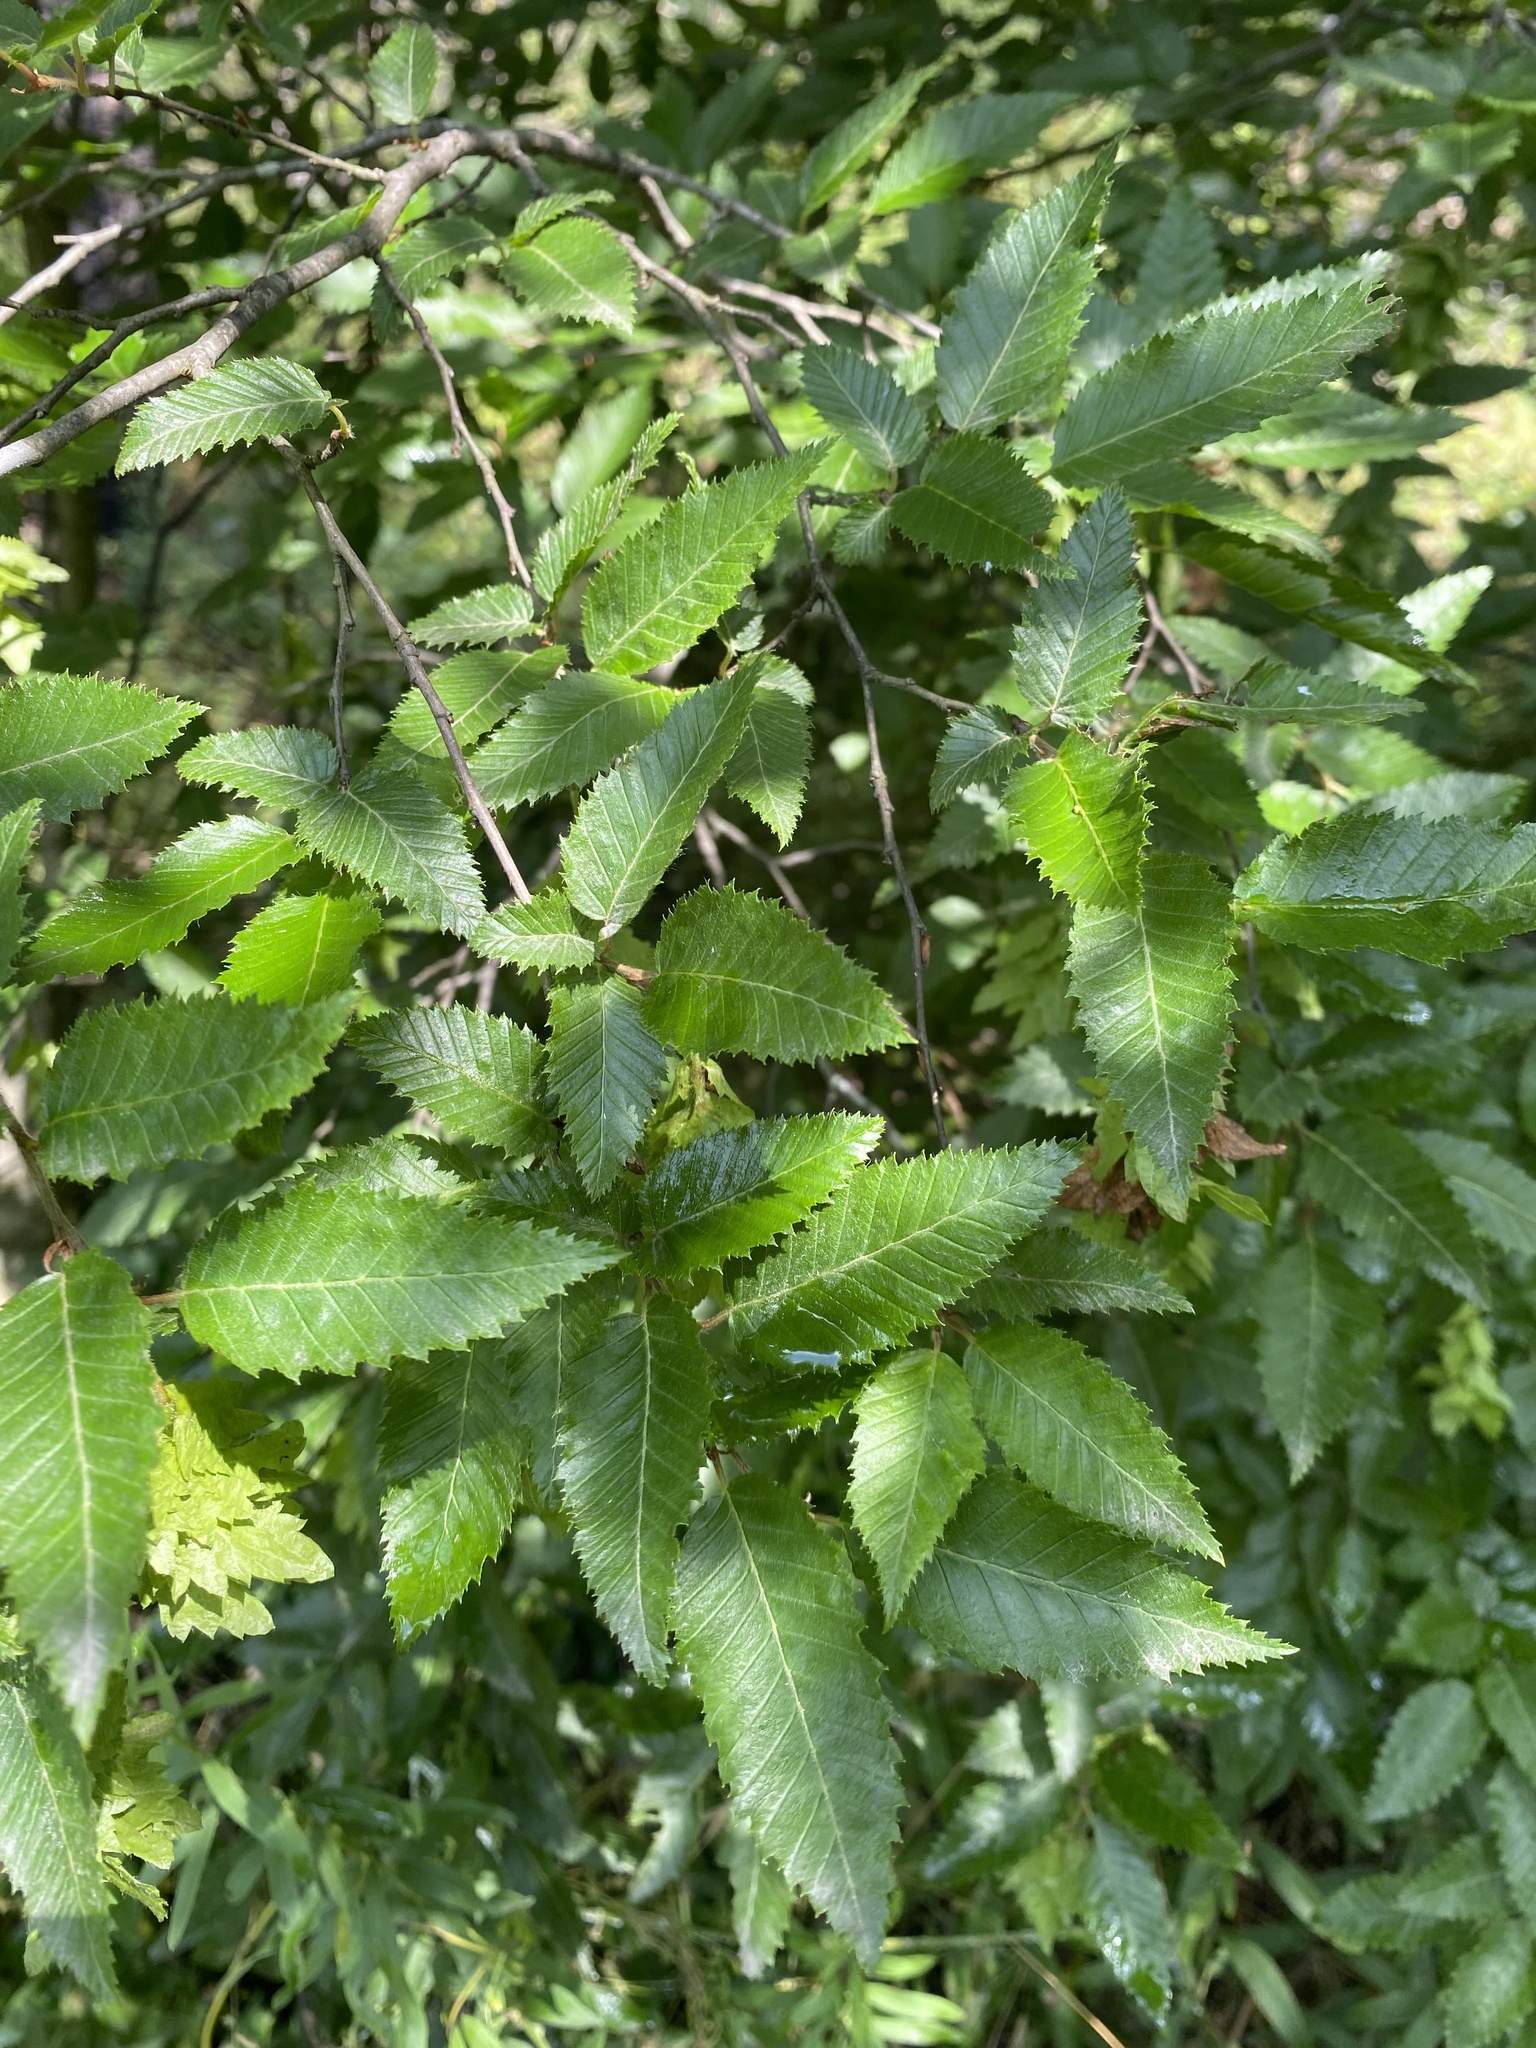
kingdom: Plantae
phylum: Tracheophyta
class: Magnoliopsida
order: Fagales
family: Betulaceae
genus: Carpinus
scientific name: Carpinus orientalis
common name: Eastern hornbeam
